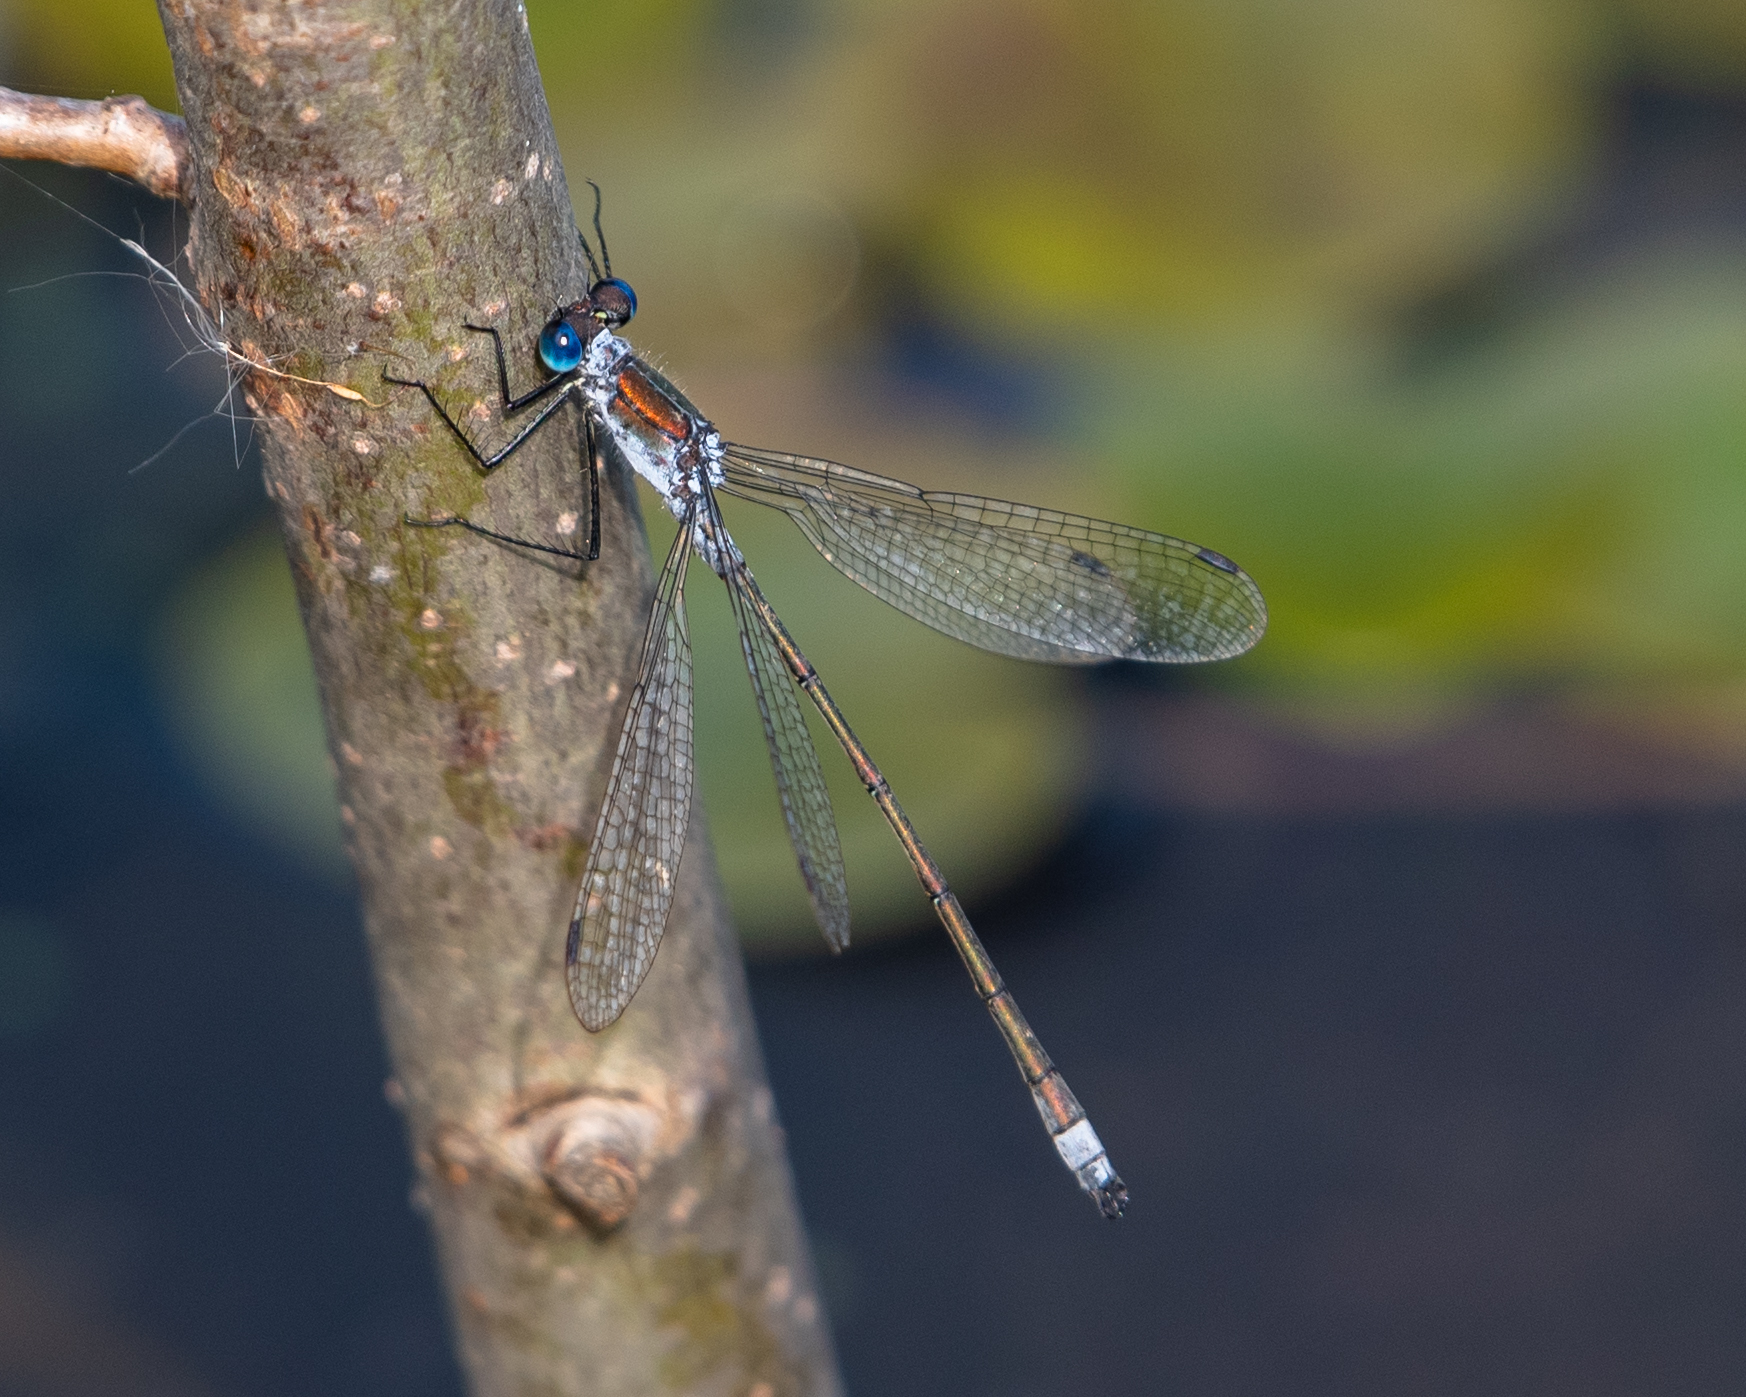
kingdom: Animalia
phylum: Arthropoda
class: Insecta
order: Odonata
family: Lestidae
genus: Lestes
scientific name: Lestes sponsa
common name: Common spreadwing
